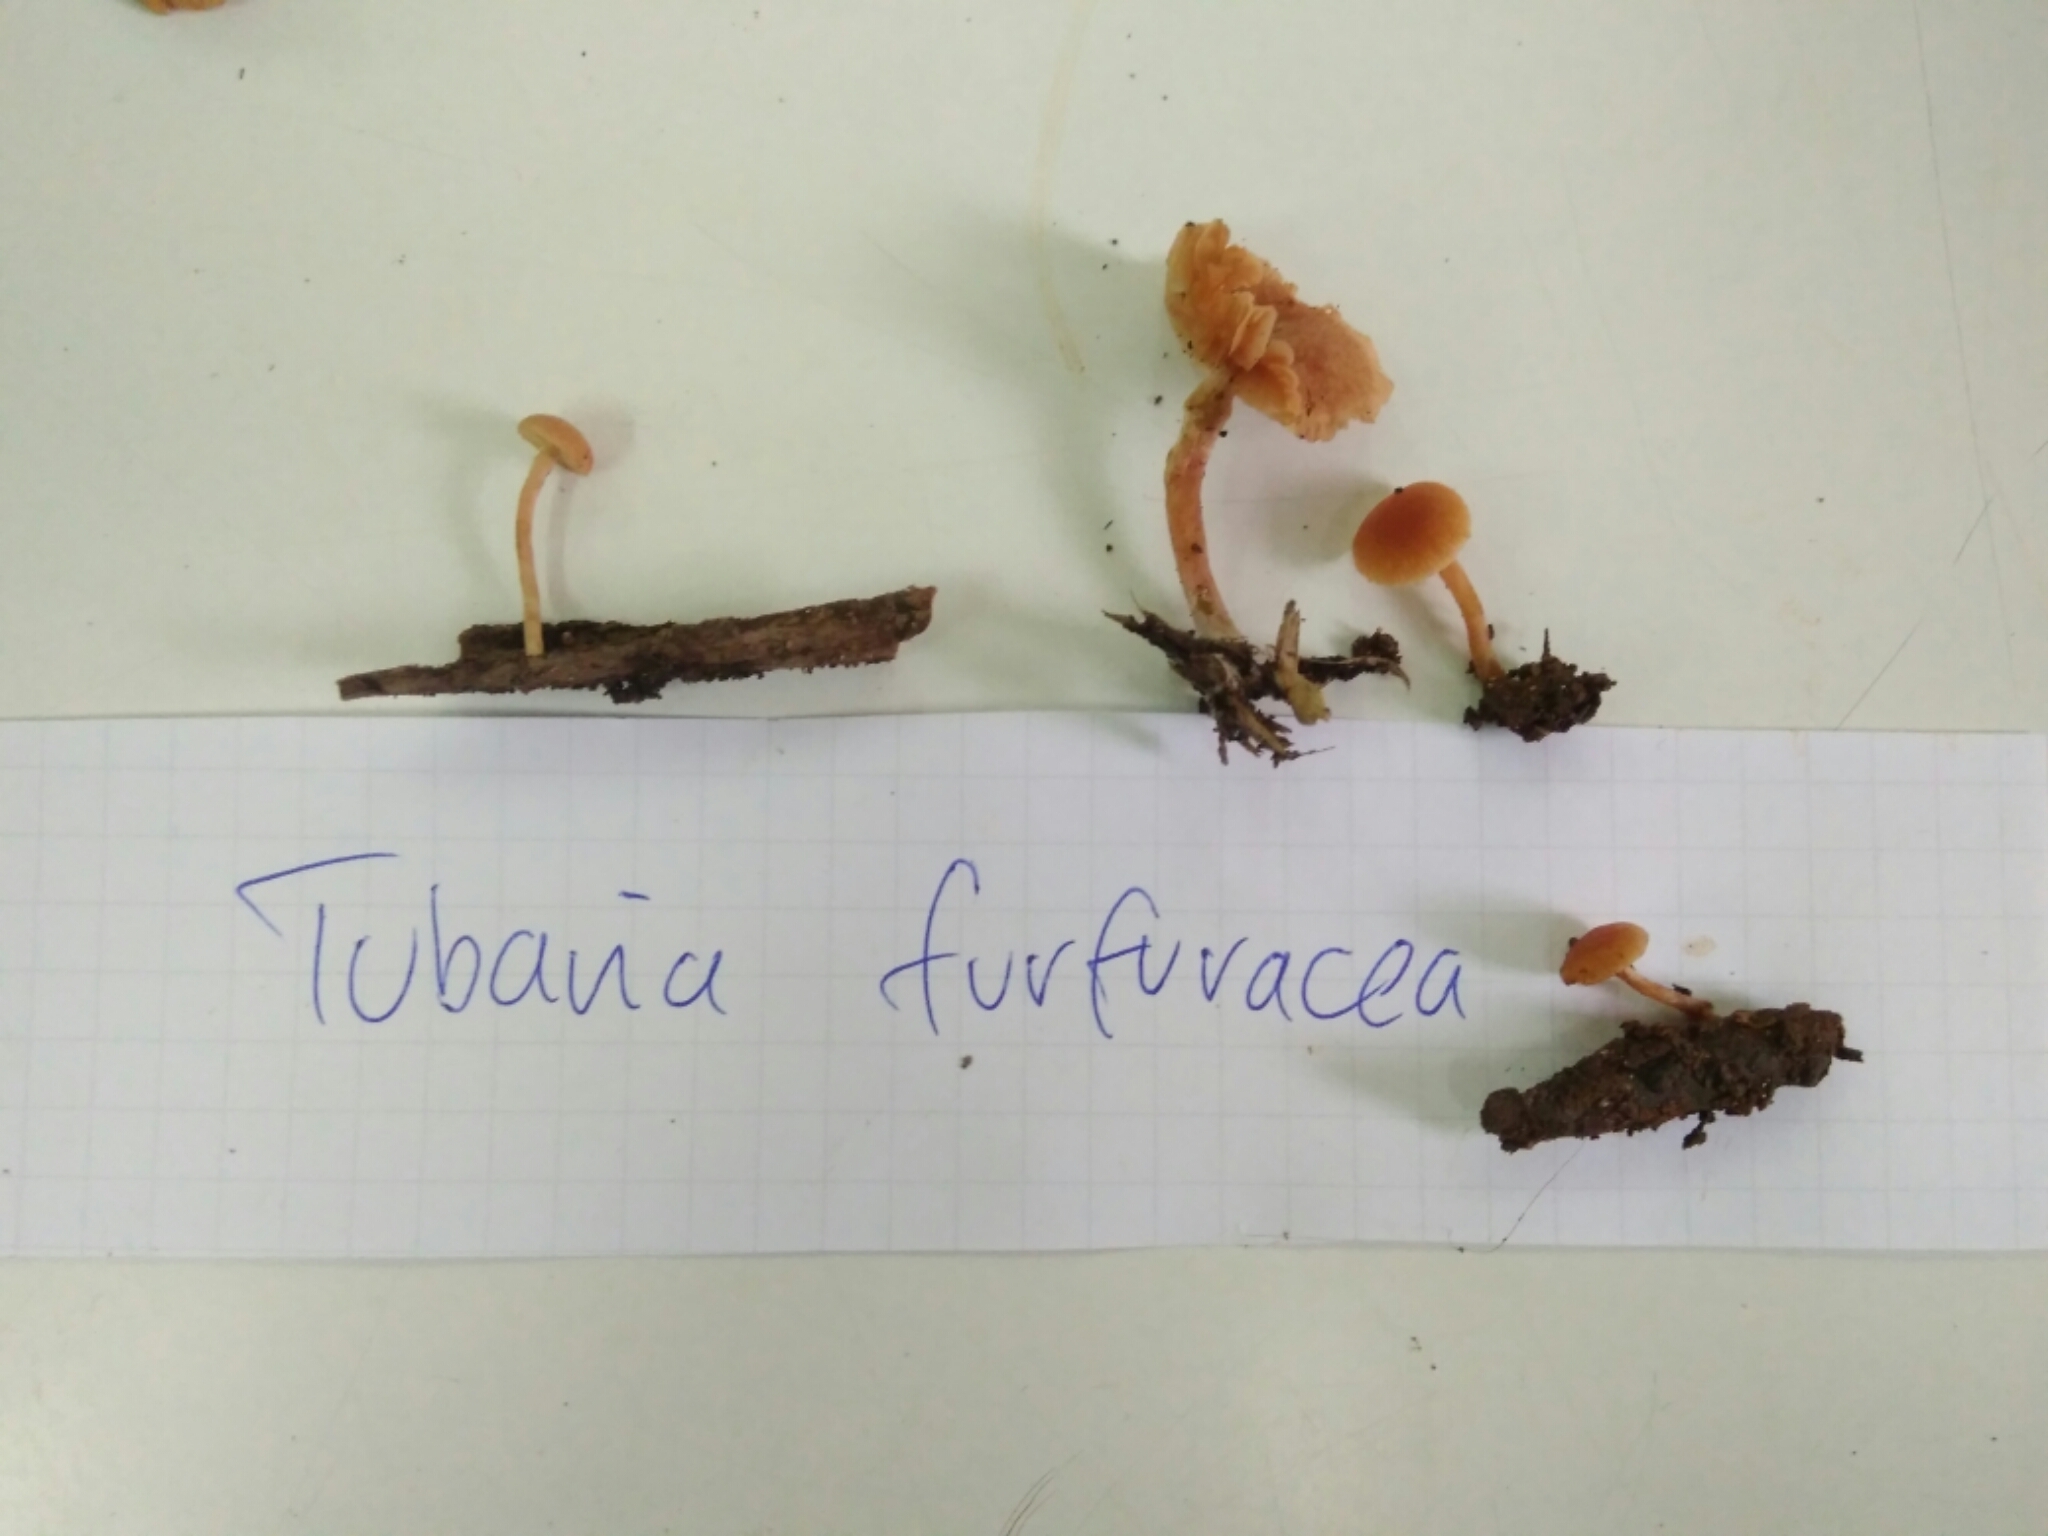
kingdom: Fungi
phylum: Basidiomycota
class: Agaricomycetes
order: Agaricales
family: Tubariaceae
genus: Tubaria
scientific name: Tubaria furfuracea
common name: Scurfy twiglet
